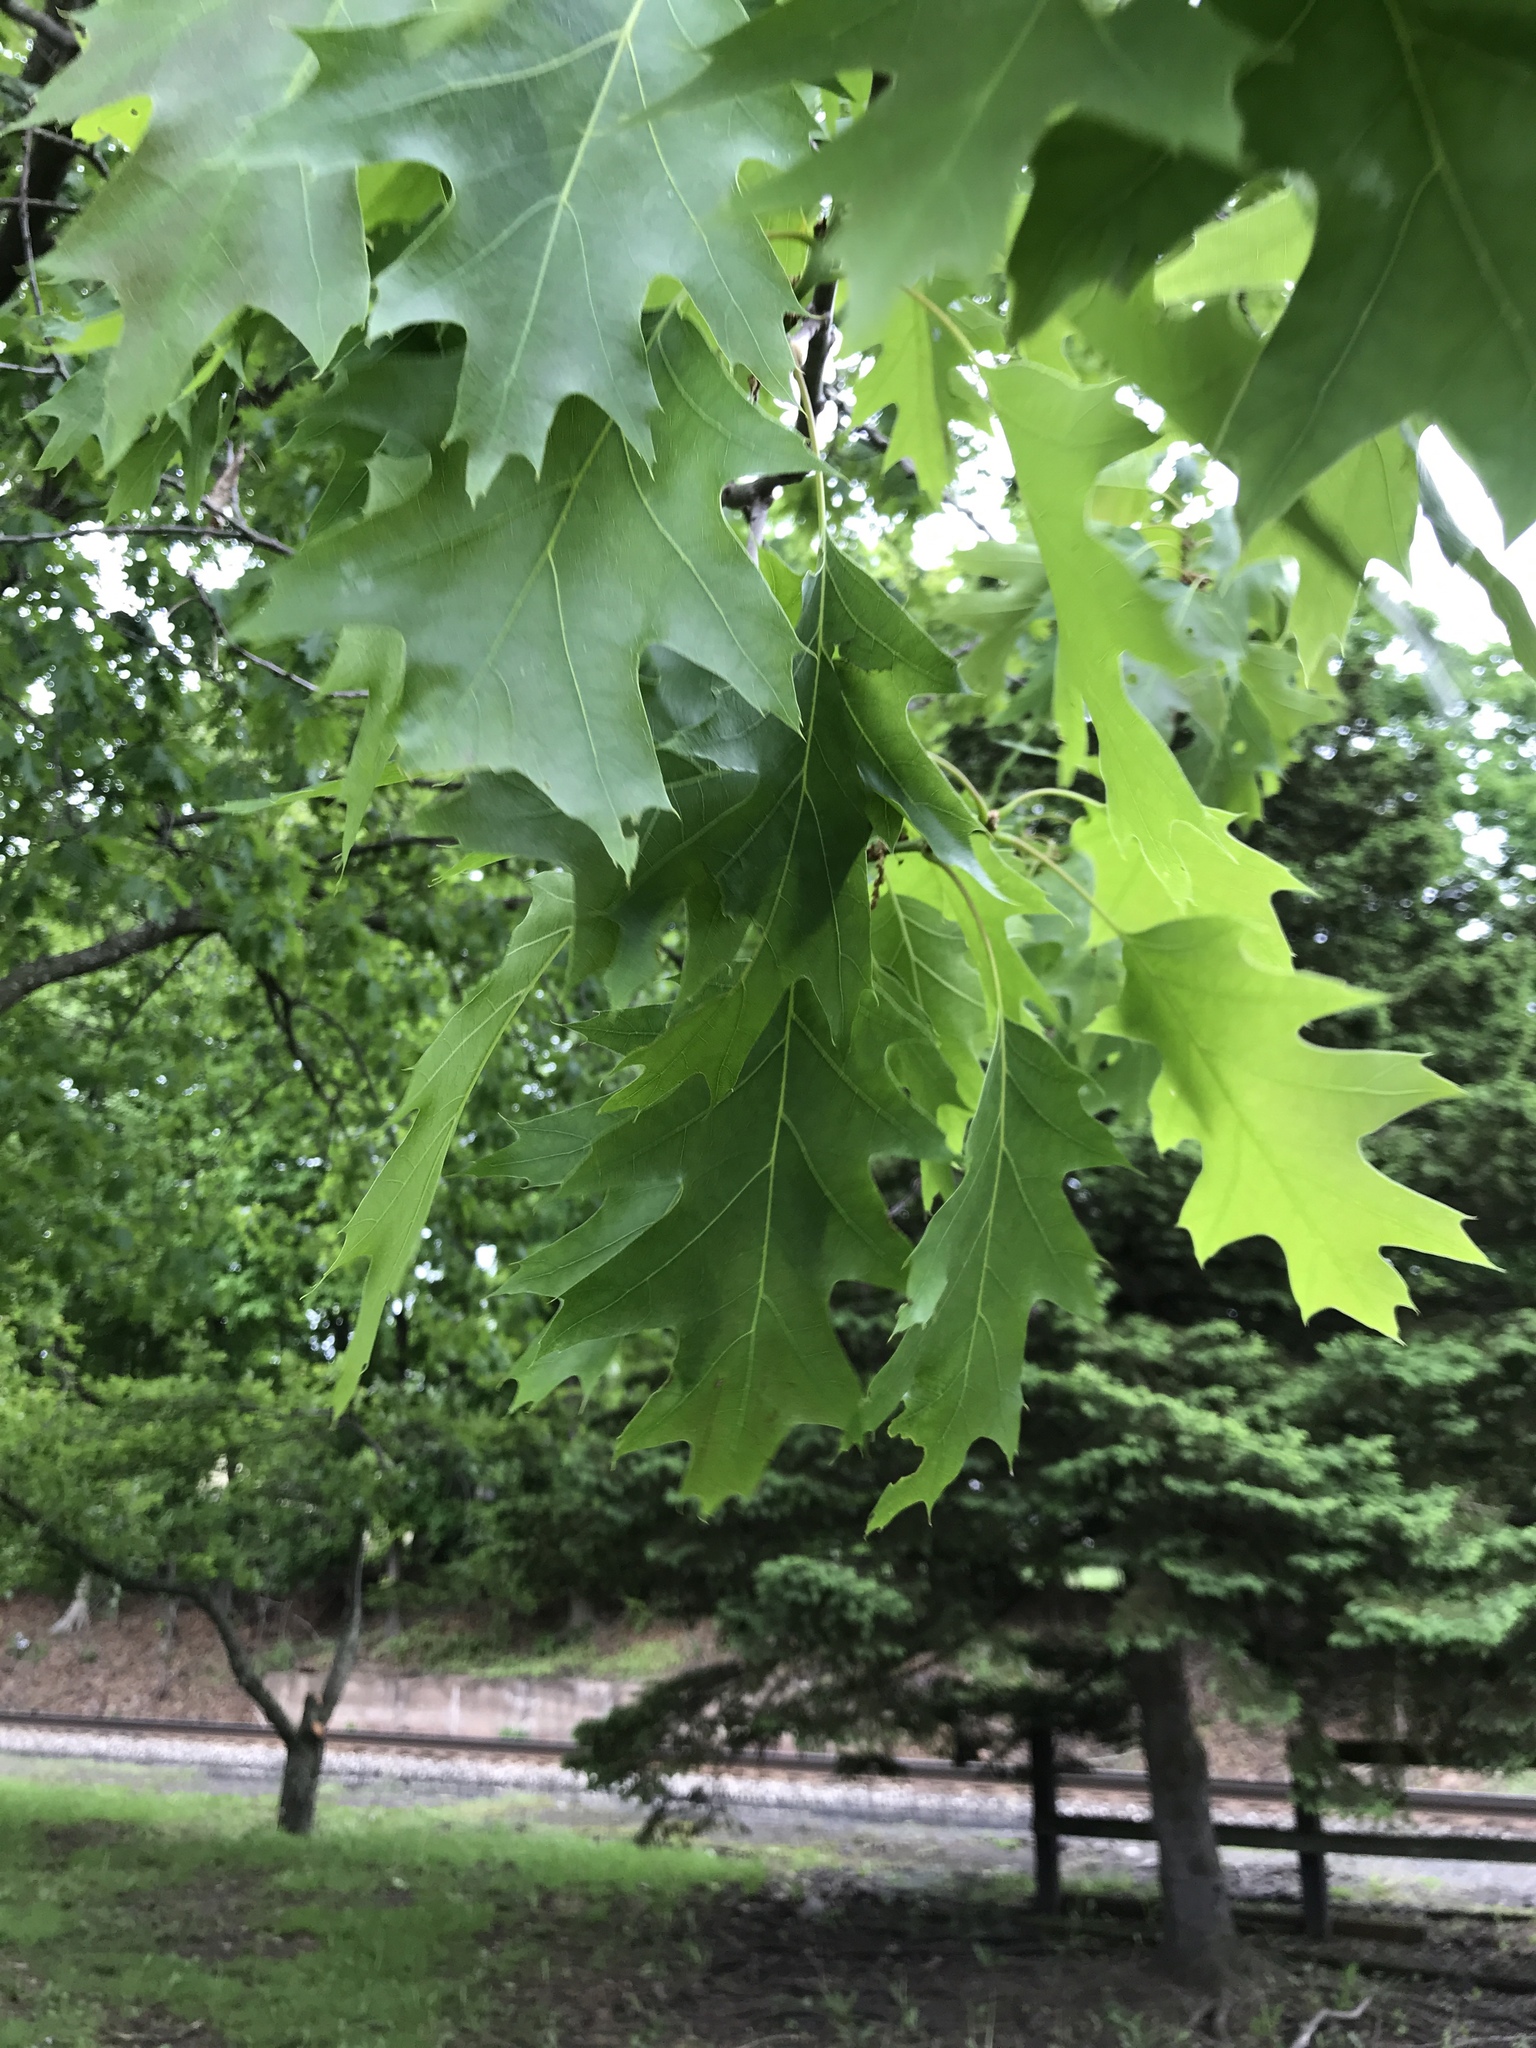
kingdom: Plantae
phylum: Tracheophyta
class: Magnoliopsida
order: Fagales
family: Fagaceae
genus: Quercus
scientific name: Quercus rubra
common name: Red oak
